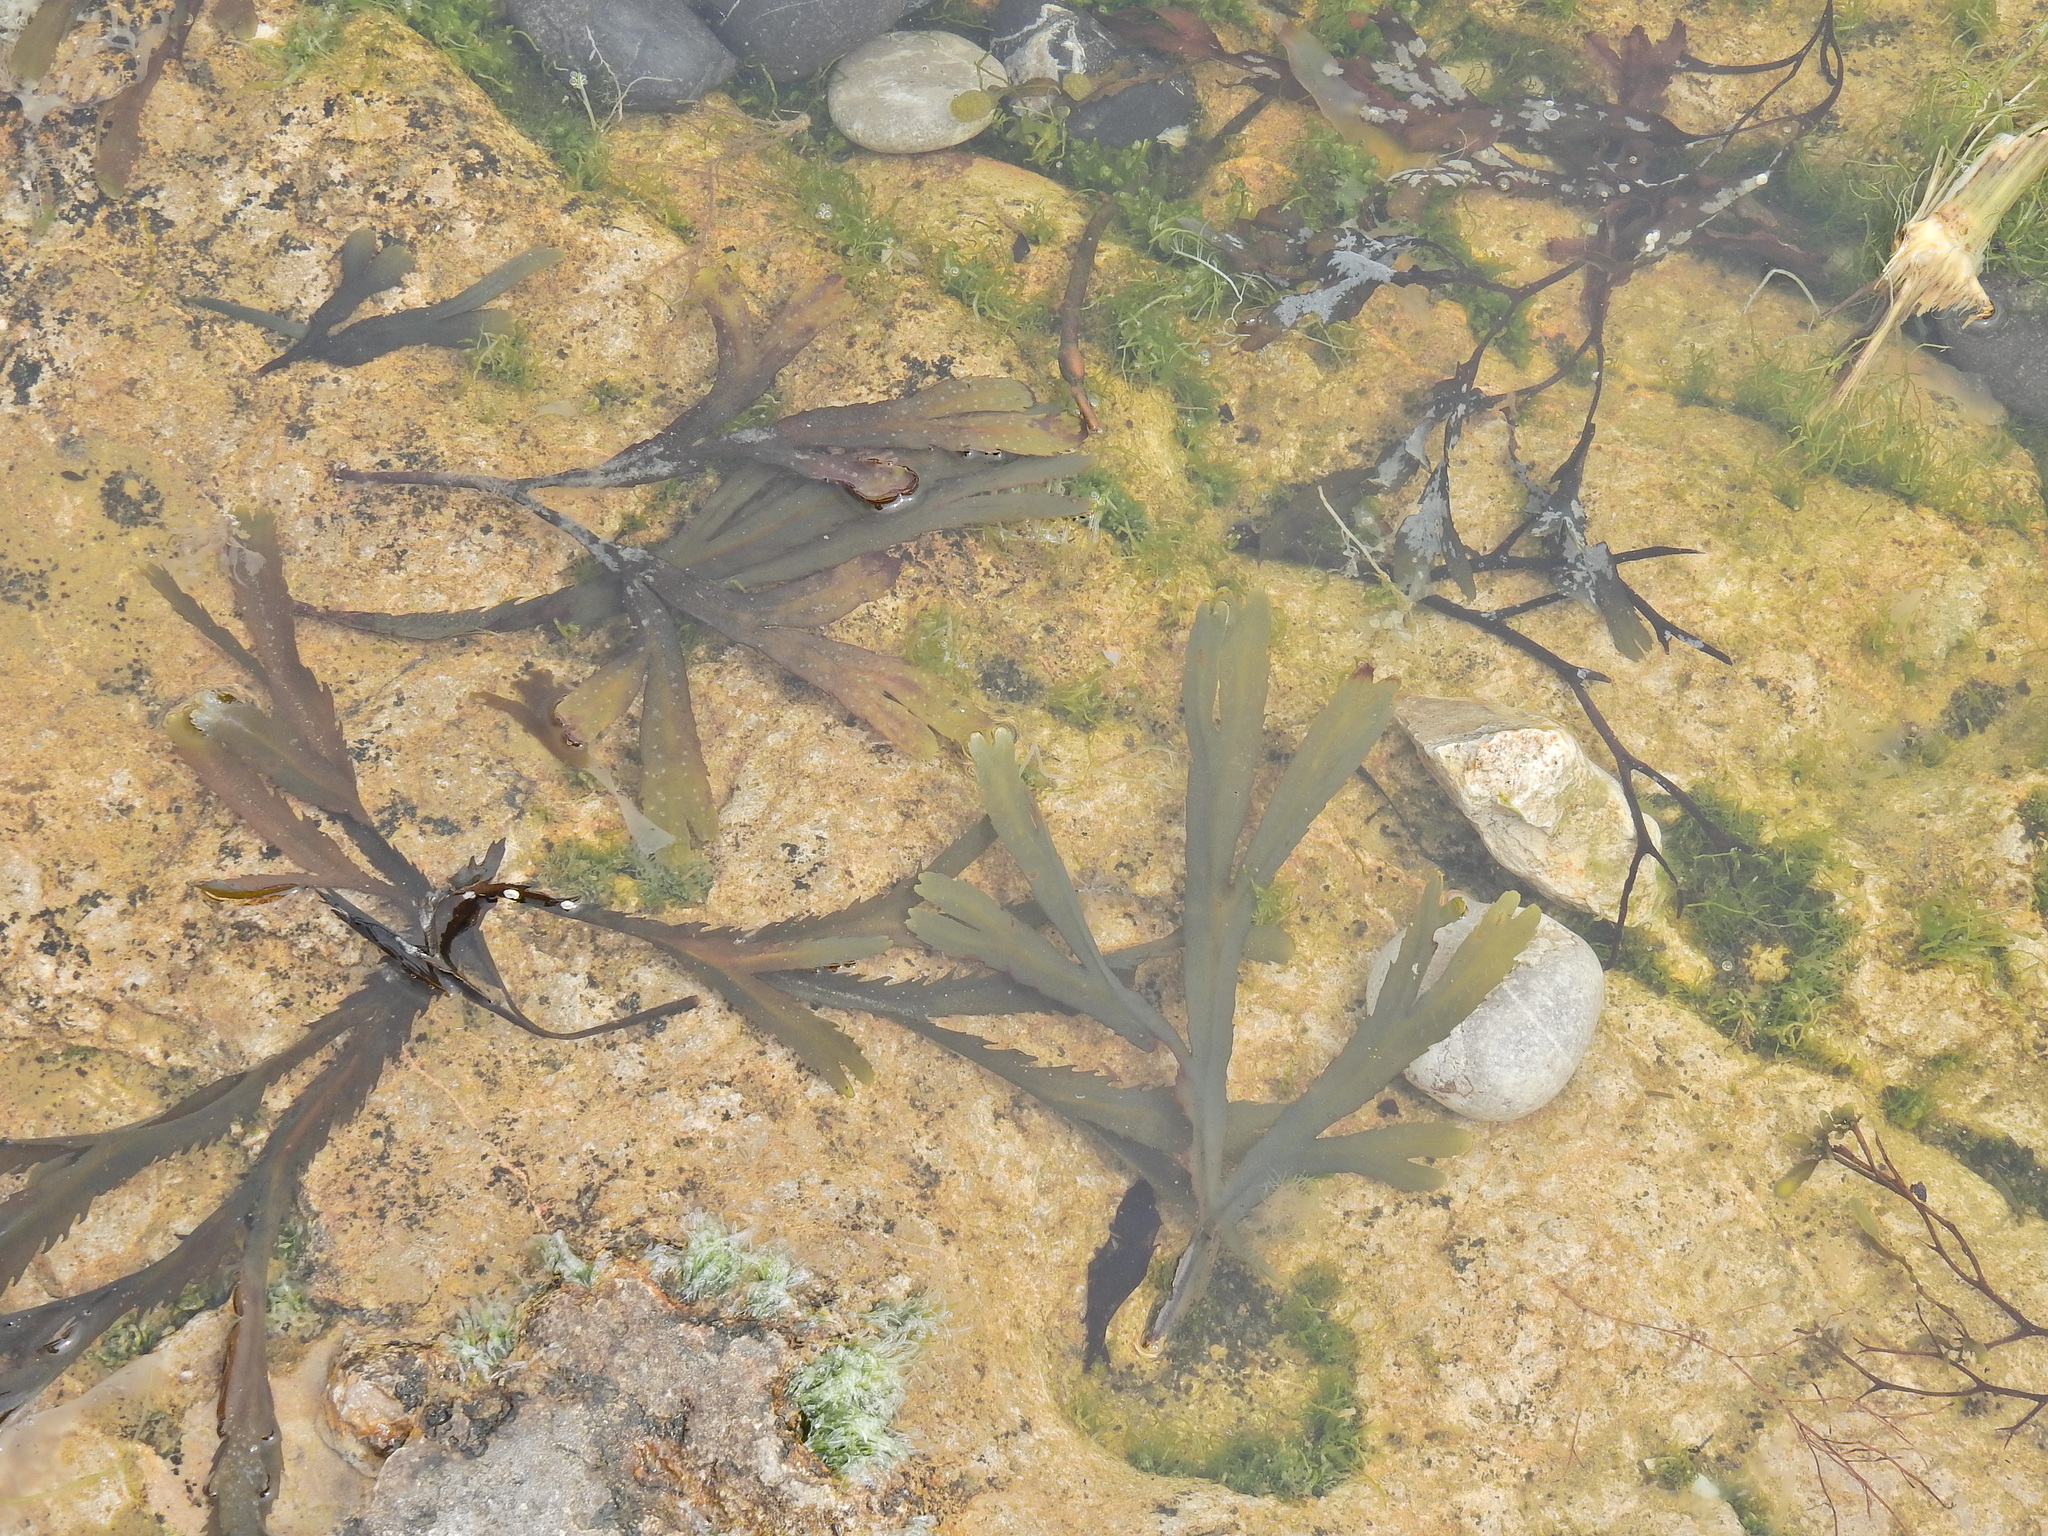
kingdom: Chromista
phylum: Ochrophyta
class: Phaeophyceae
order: Fucales
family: Fucaceae
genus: Fucus
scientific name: Fucus serratus
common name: Toothed wrack
